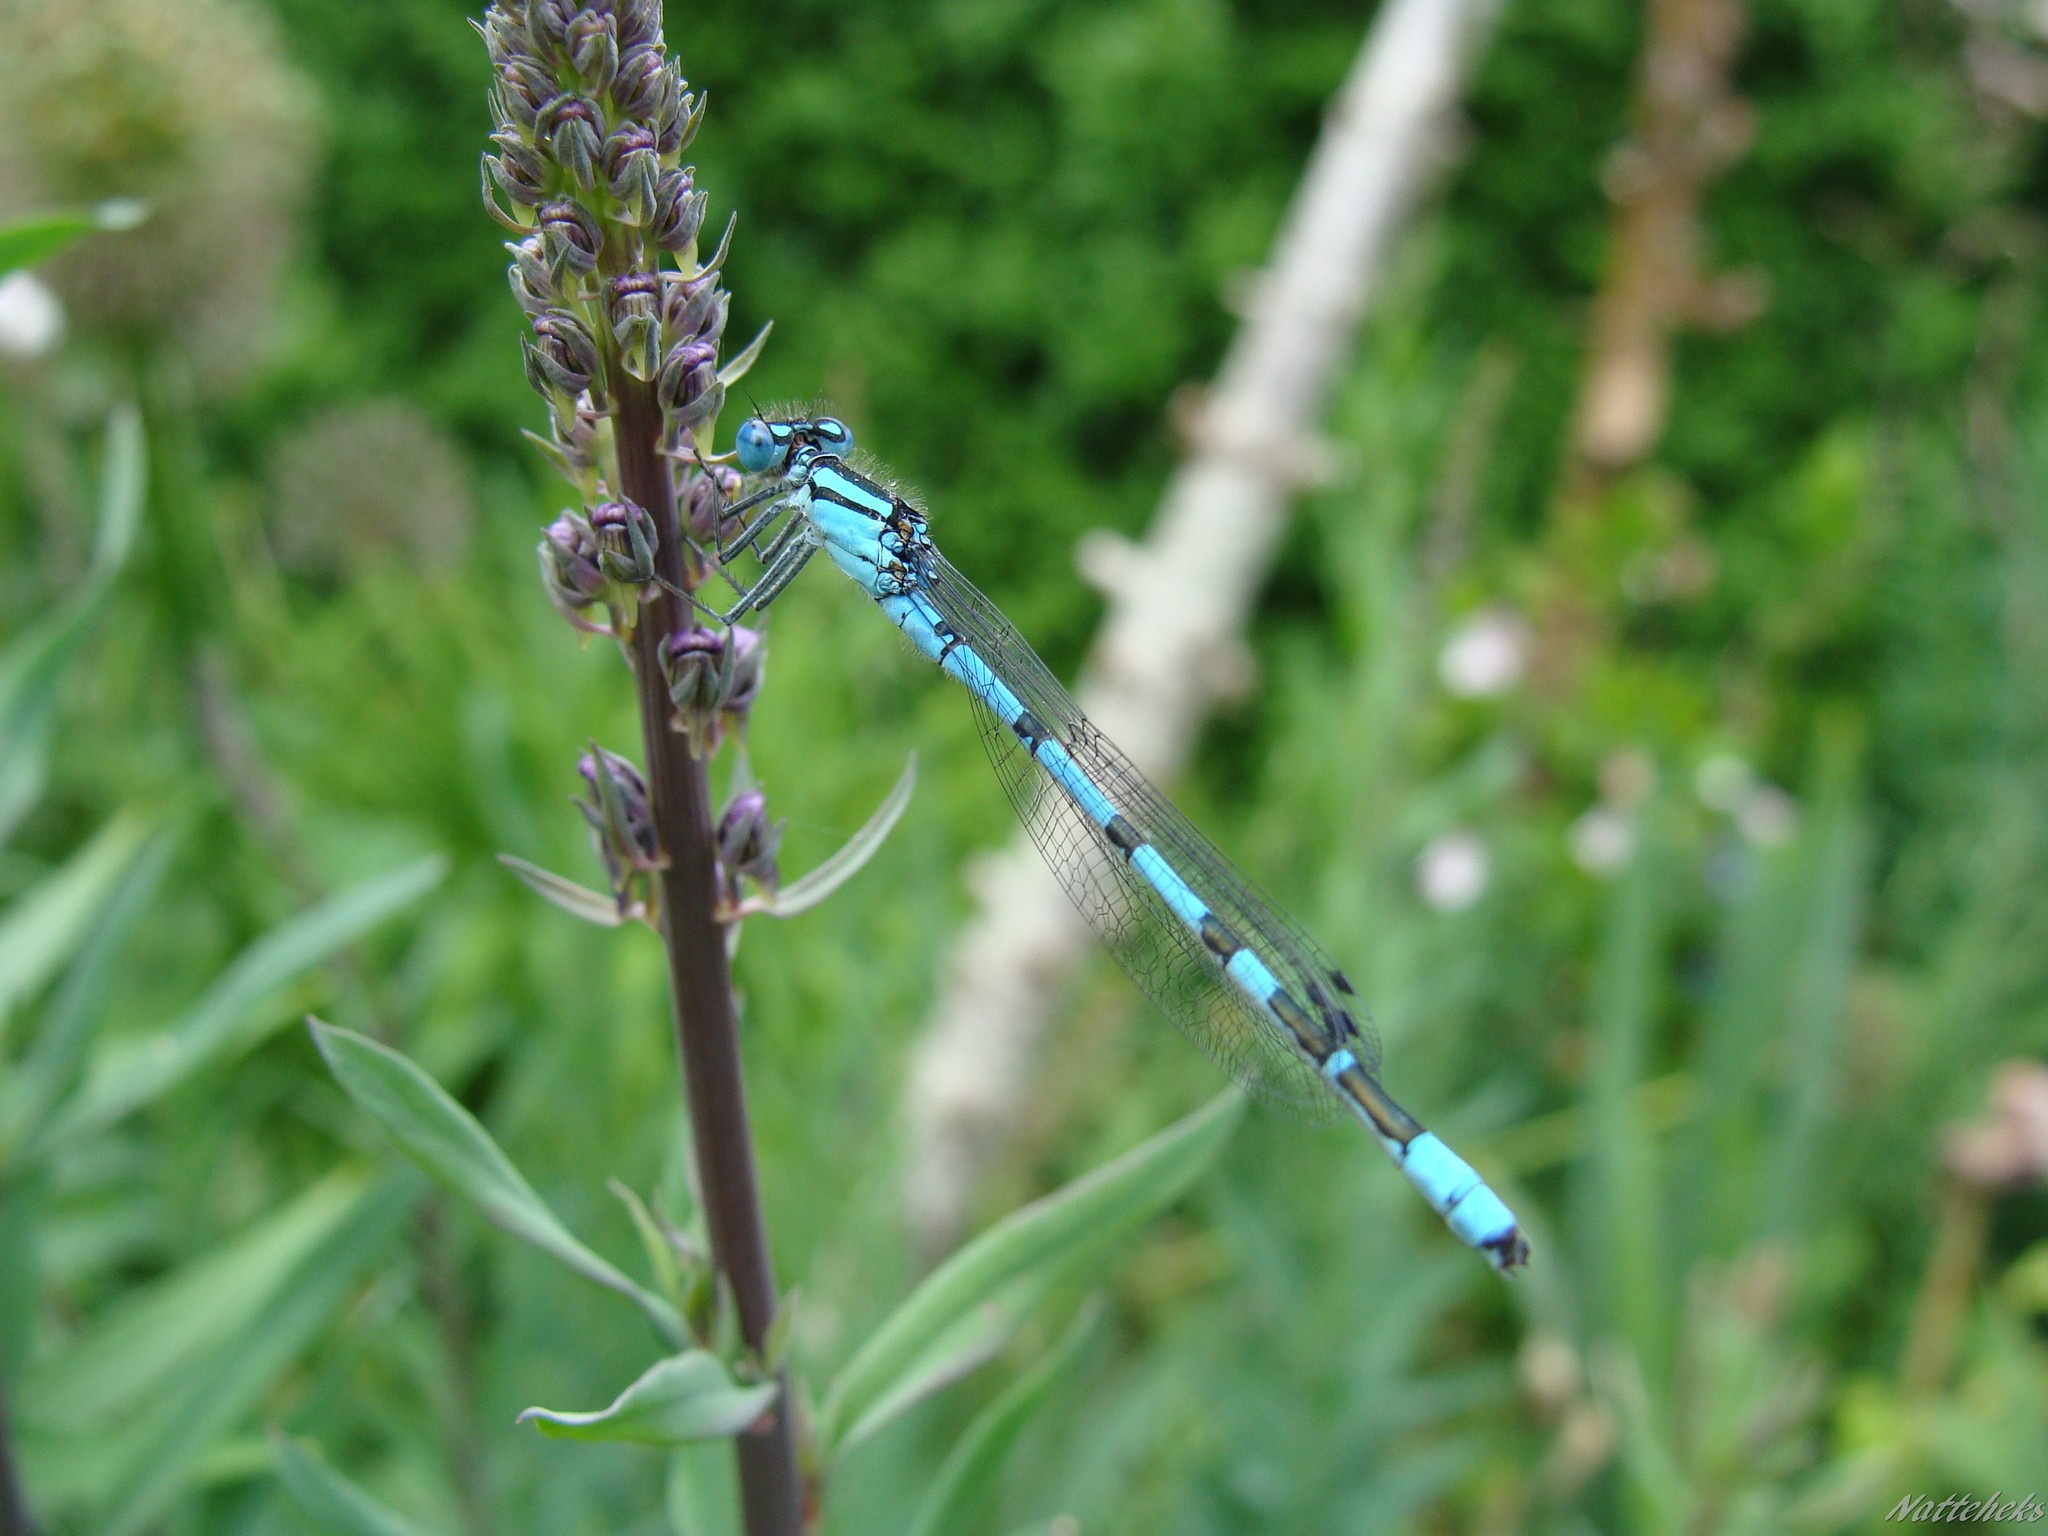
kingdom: Animalia
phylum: Arthropoda
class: Insecta
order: Odonata
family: Coenagrionidae
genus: Enallagma
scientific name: Enallagma cyathigerum
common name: Common blue damselfly
